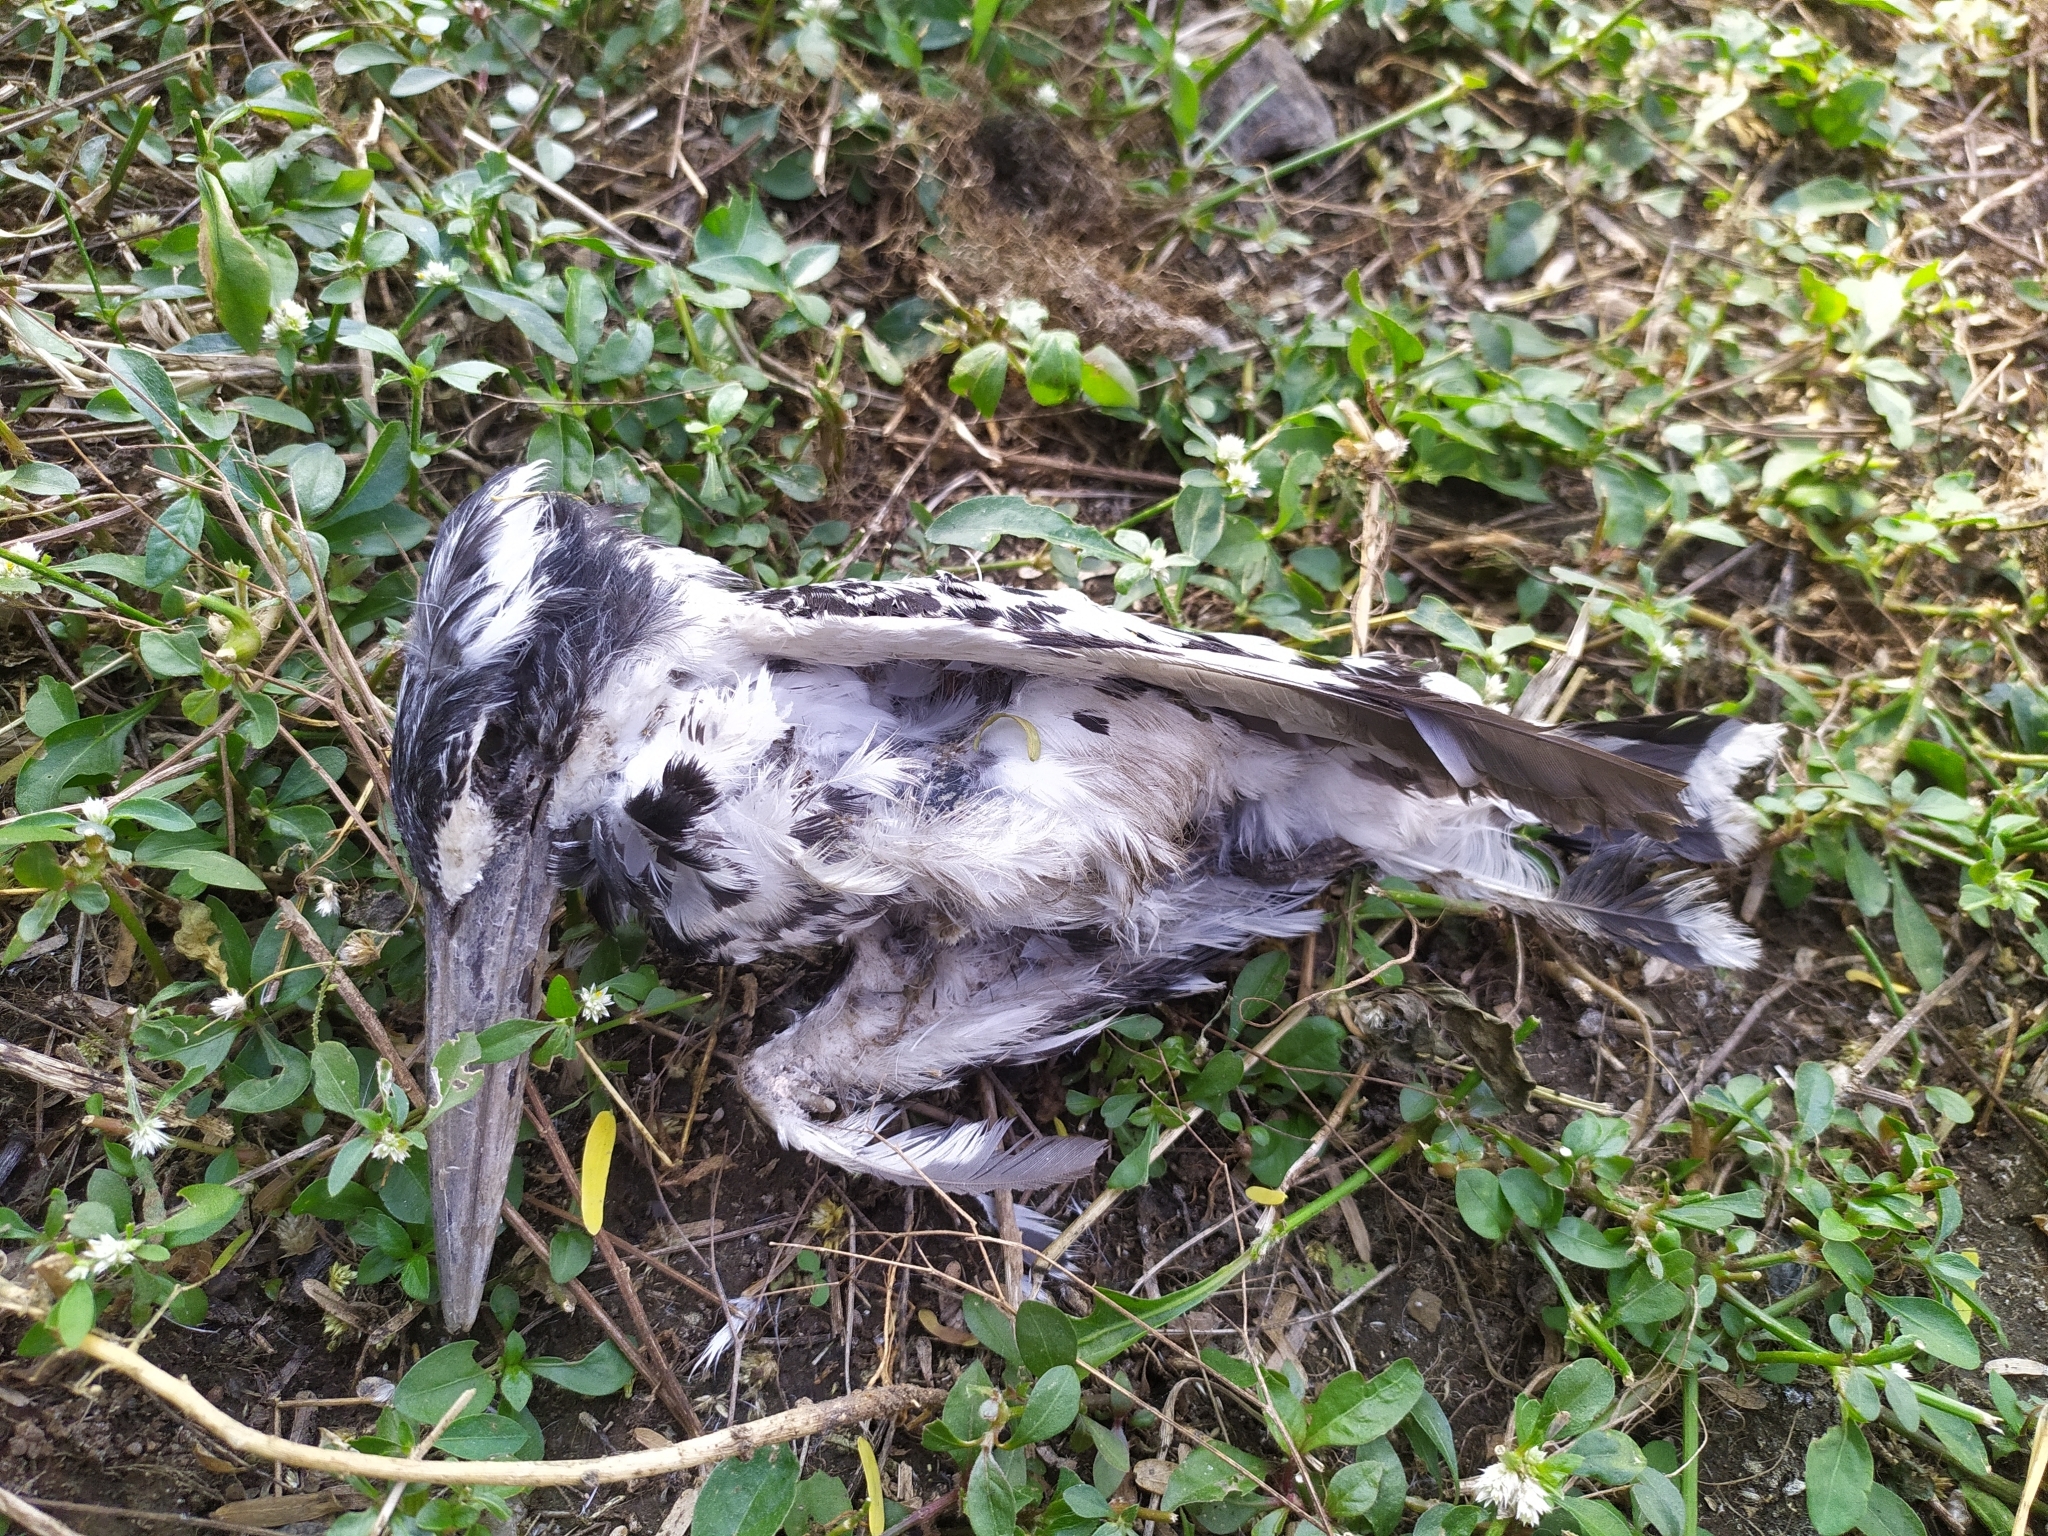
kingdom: Animalia
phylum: Chordata
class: Aves
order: Coraciiformes
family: Alcedinidae
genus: Ceryle
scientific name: Ceryle rudis
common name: Pied kingfisher
